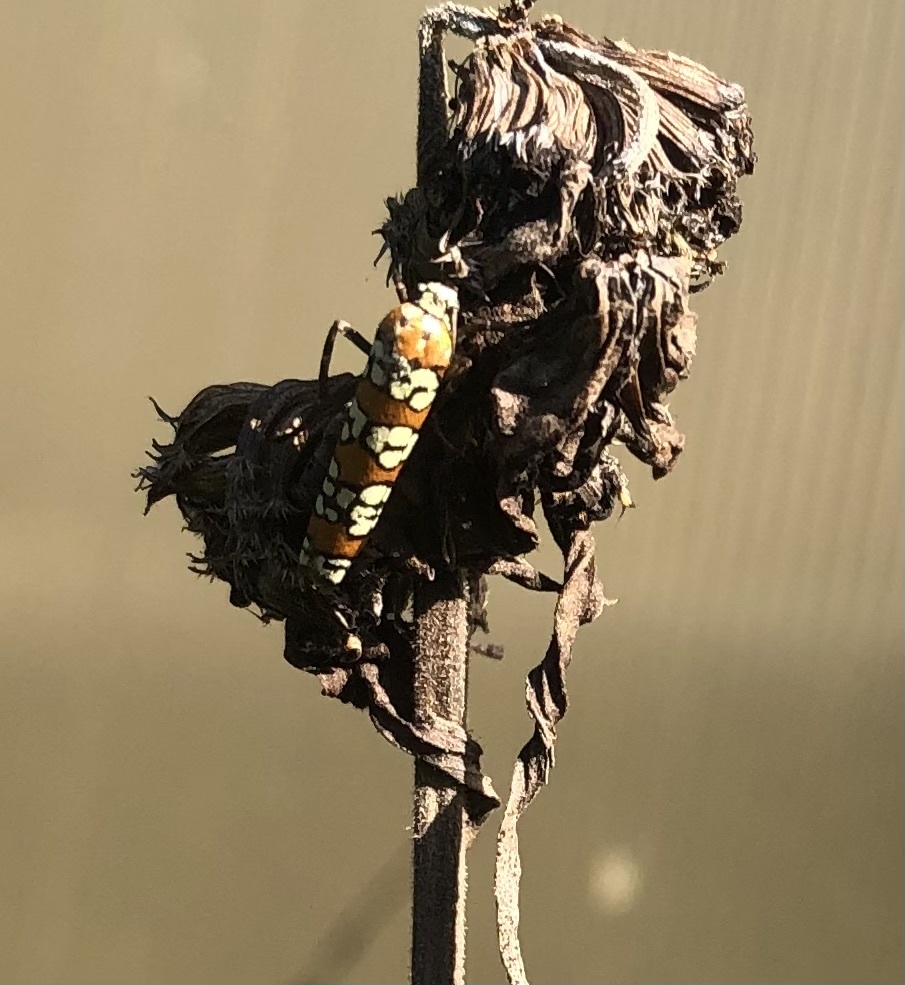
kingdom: Animalia
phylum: Arthropoda
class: Insecta
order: Lepidoptera
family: Attevidae
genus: Atteva
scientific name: Atteva punctella
